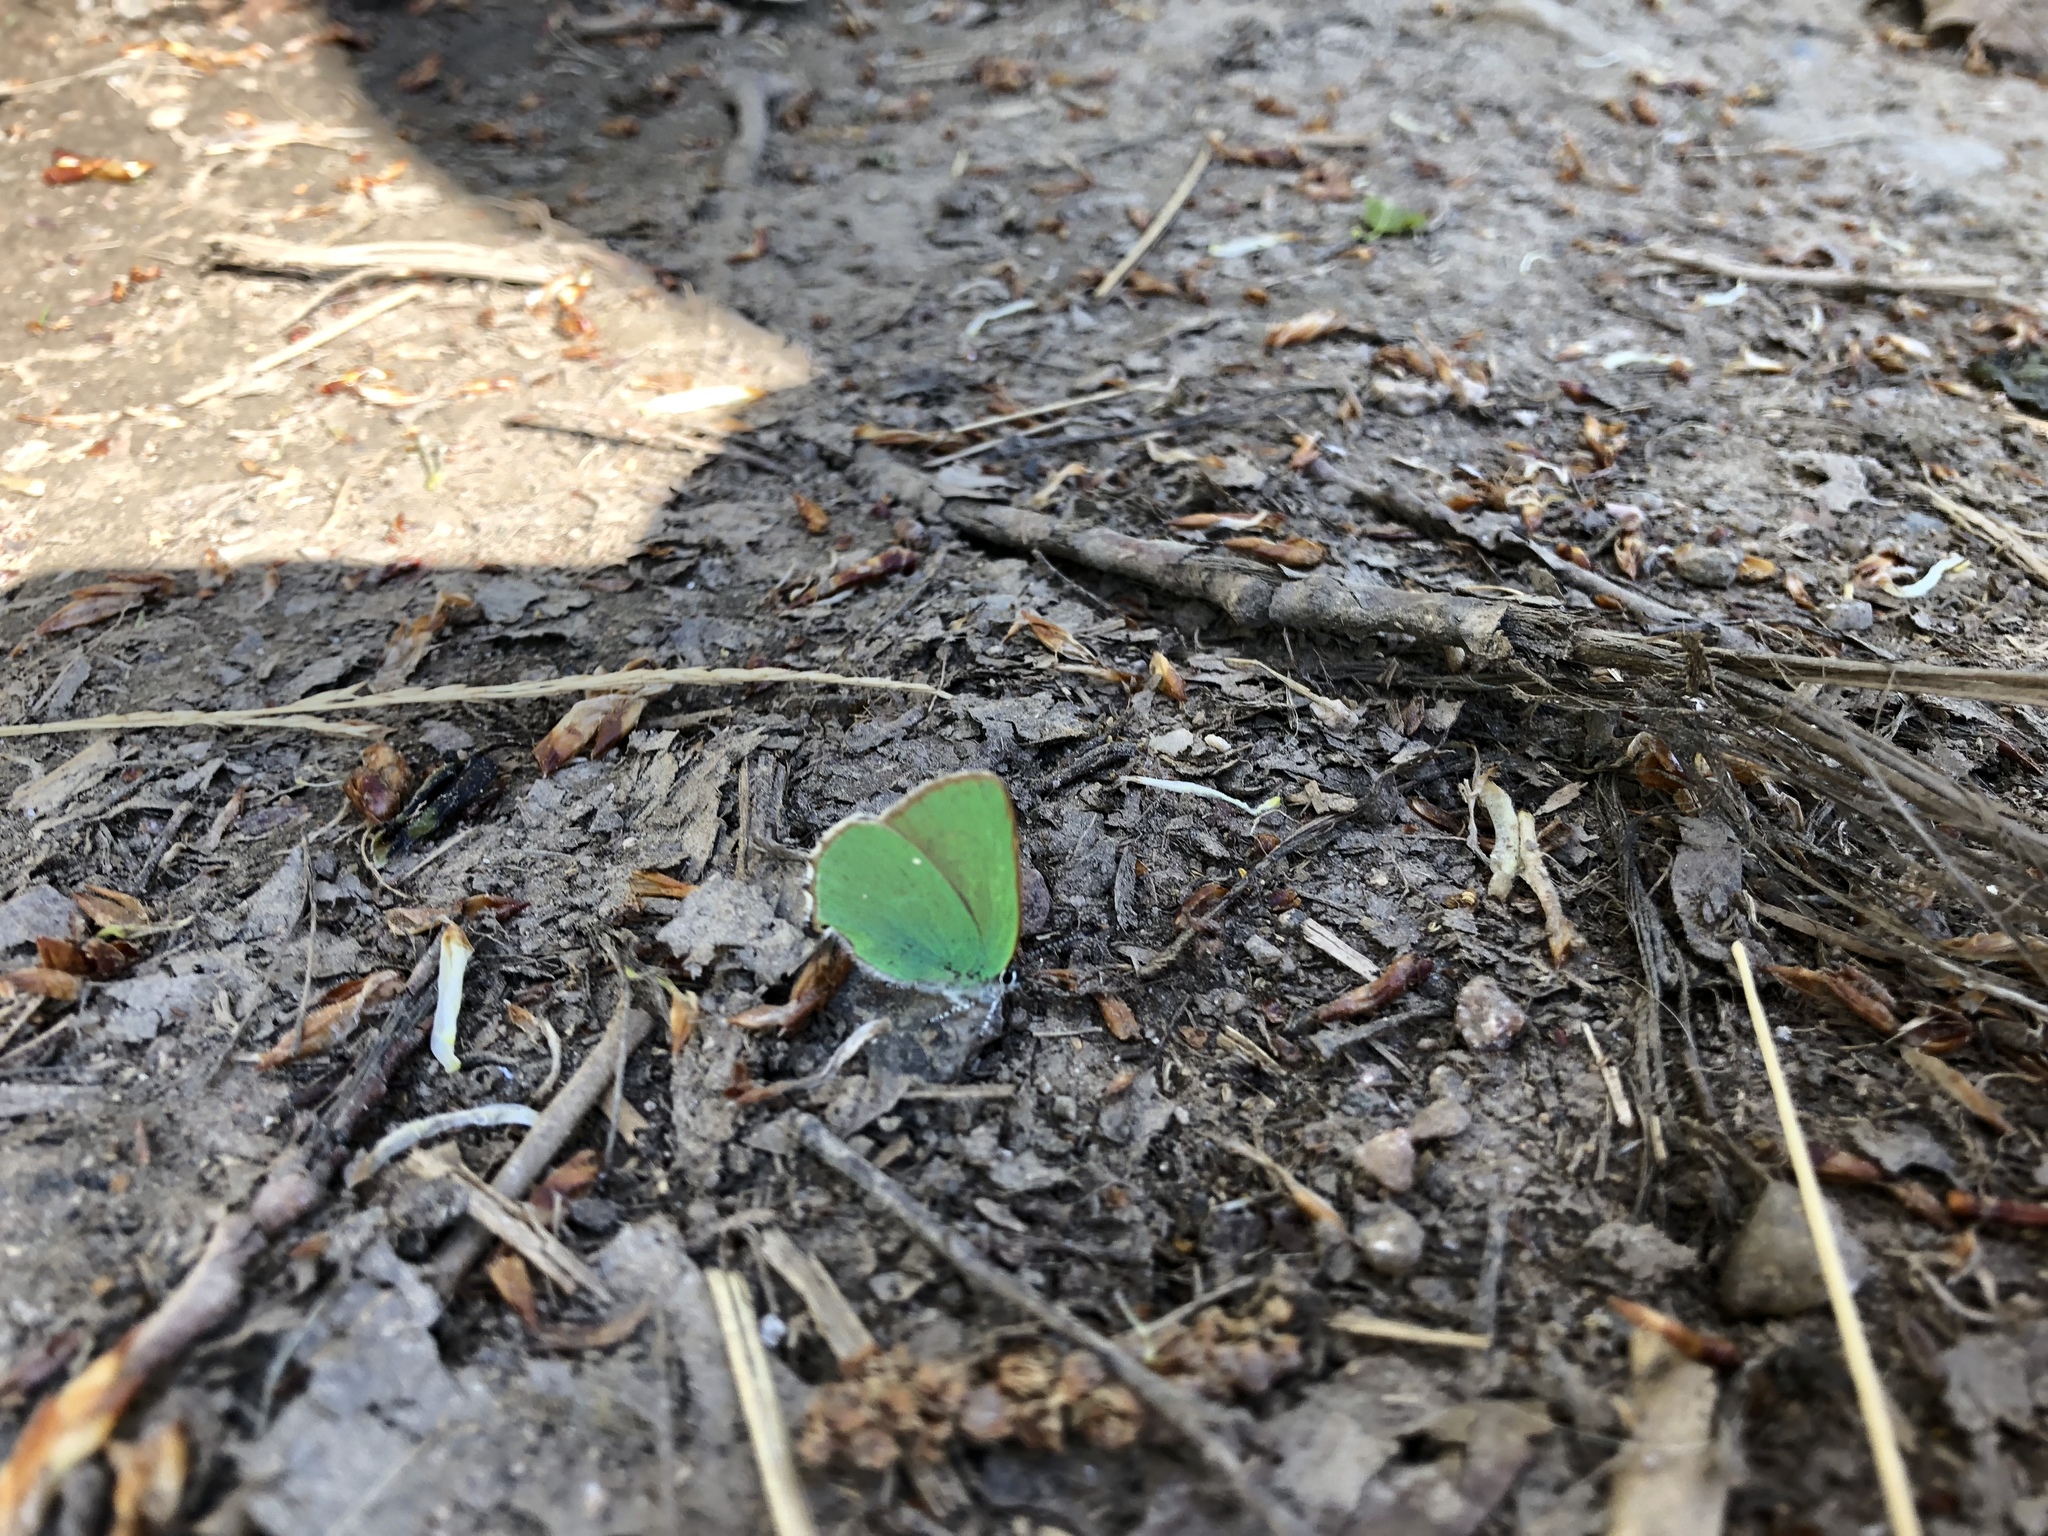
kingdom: Animalia
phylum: Arthropoda
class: Insecta
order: Lepidoptera
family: Lycaenidae
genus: Callophrys
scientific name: Callophrys rubi
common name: Green hairstreak
